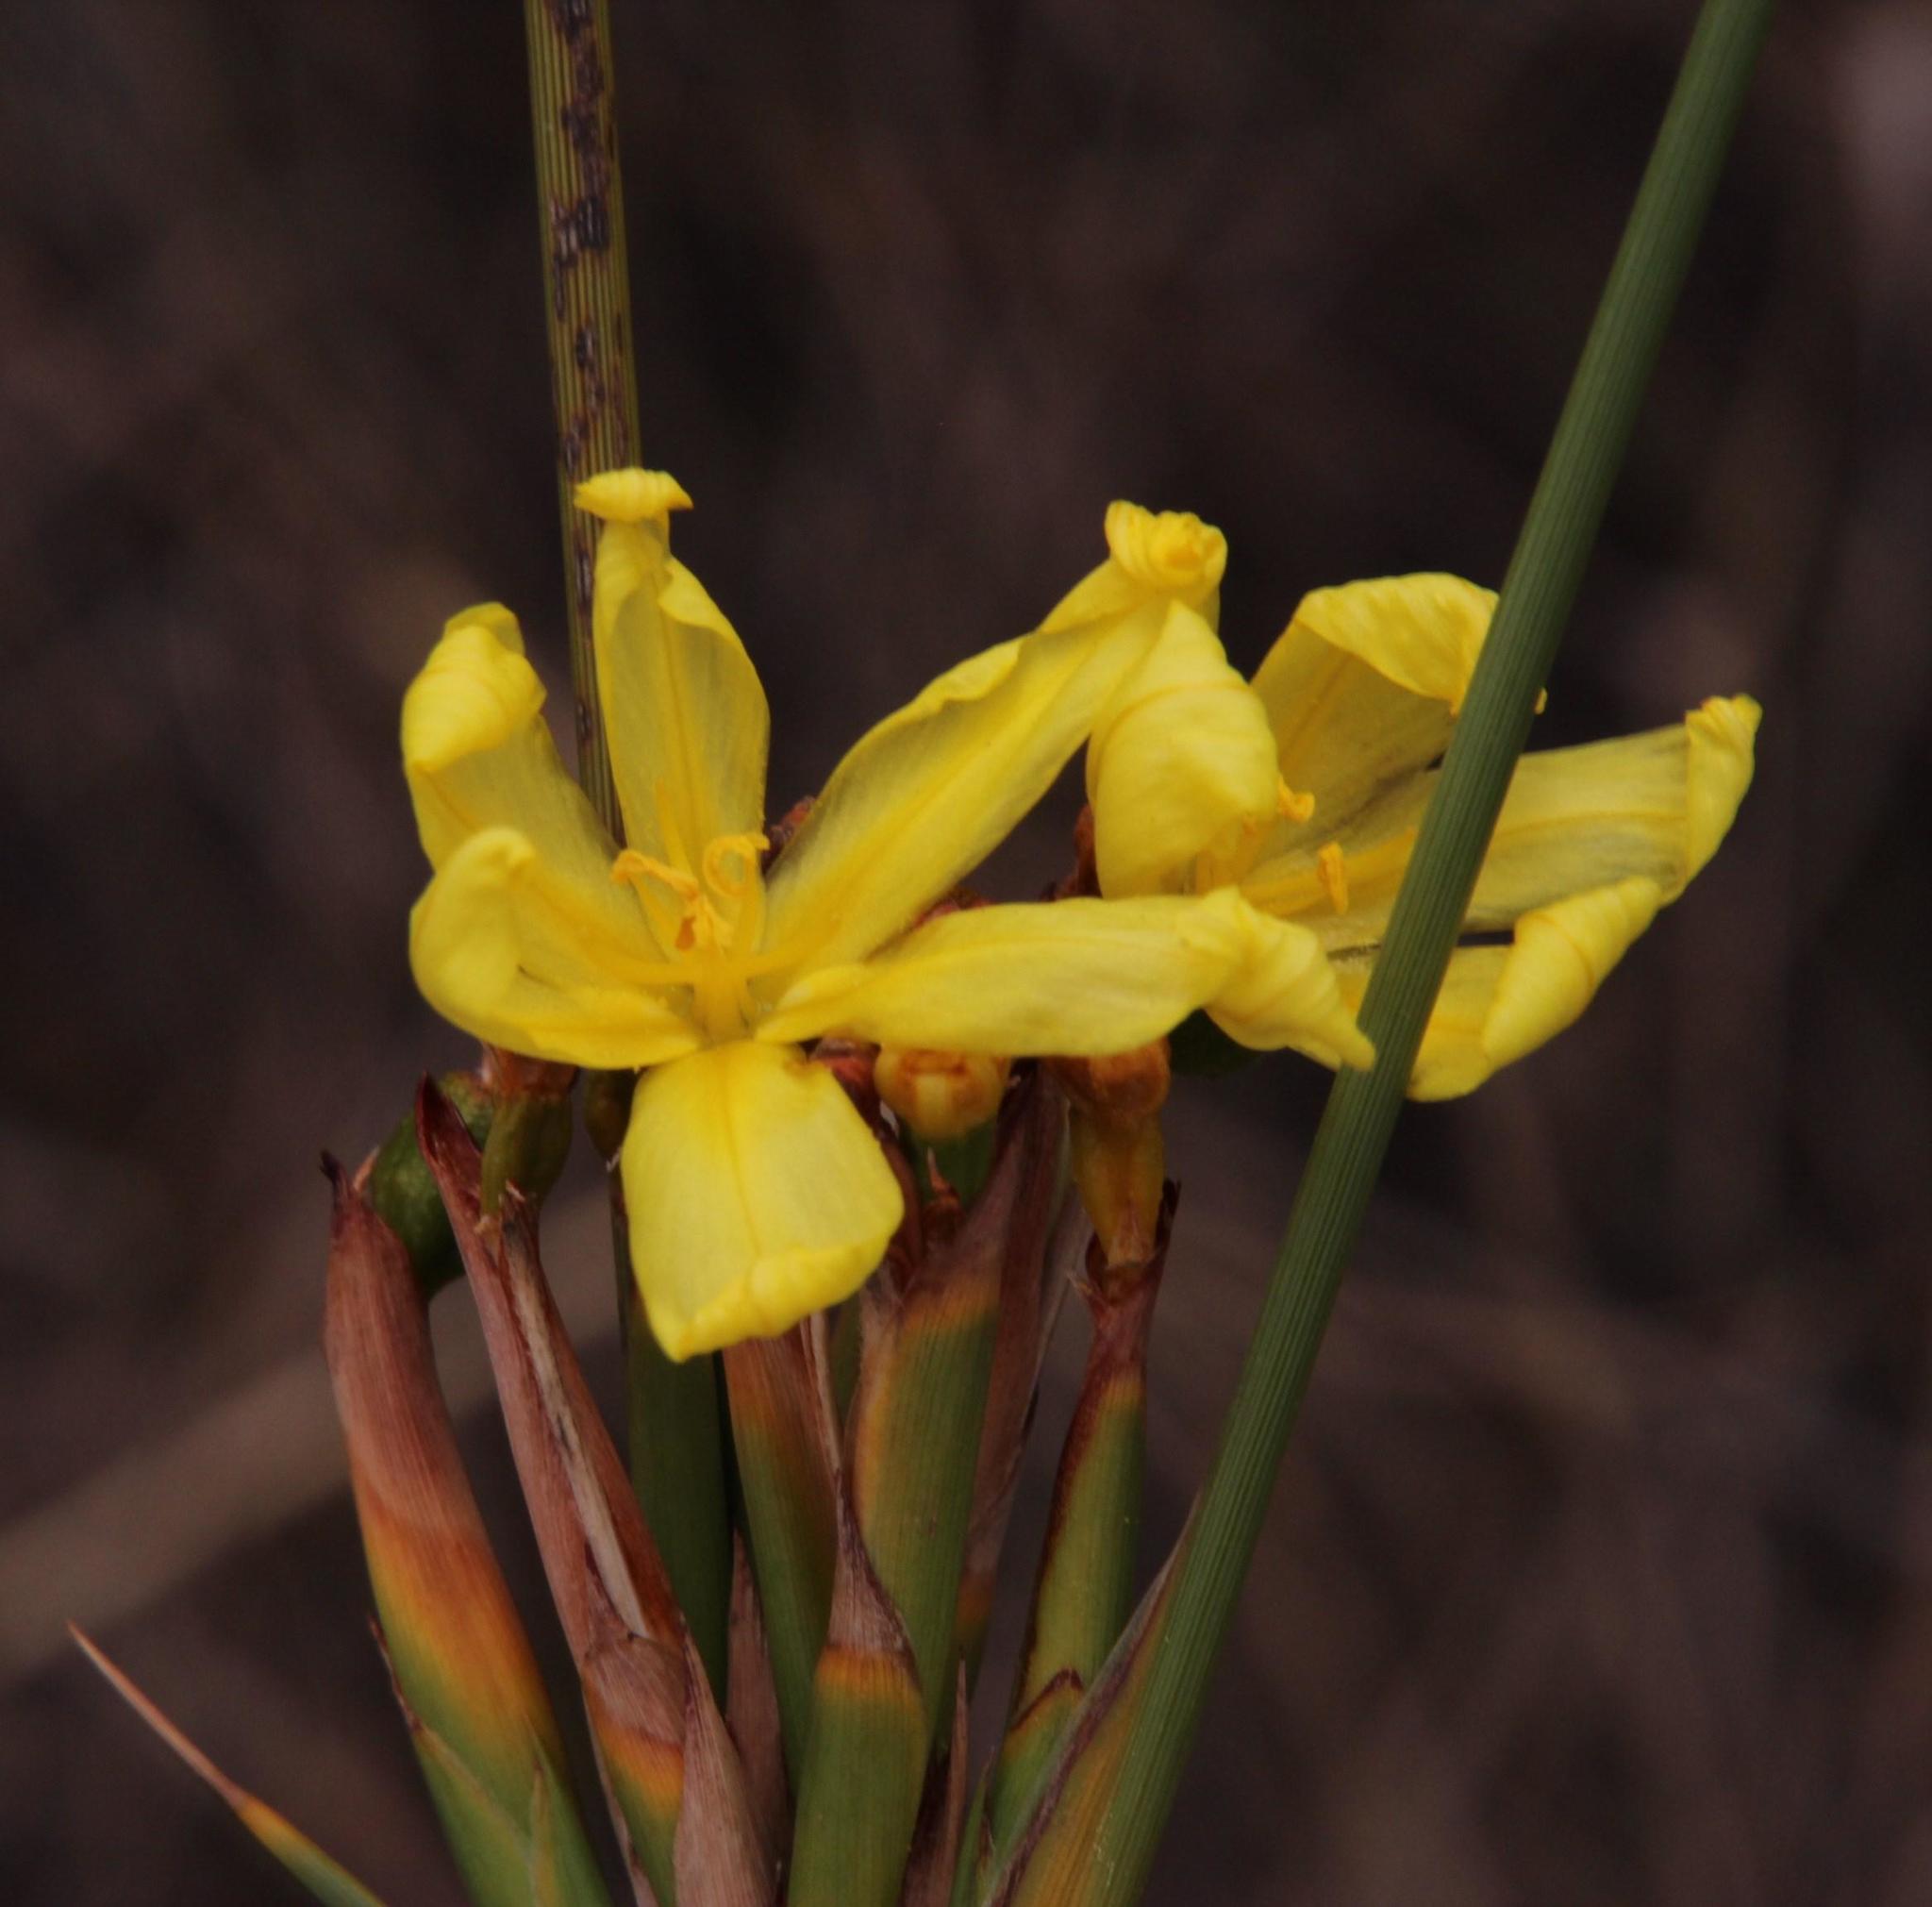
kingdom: Plantae
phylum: Tracheophyta
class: Liliopsida
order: Asparagales
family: Iridaceae
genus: Bobartia
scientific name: Bobartia indica
